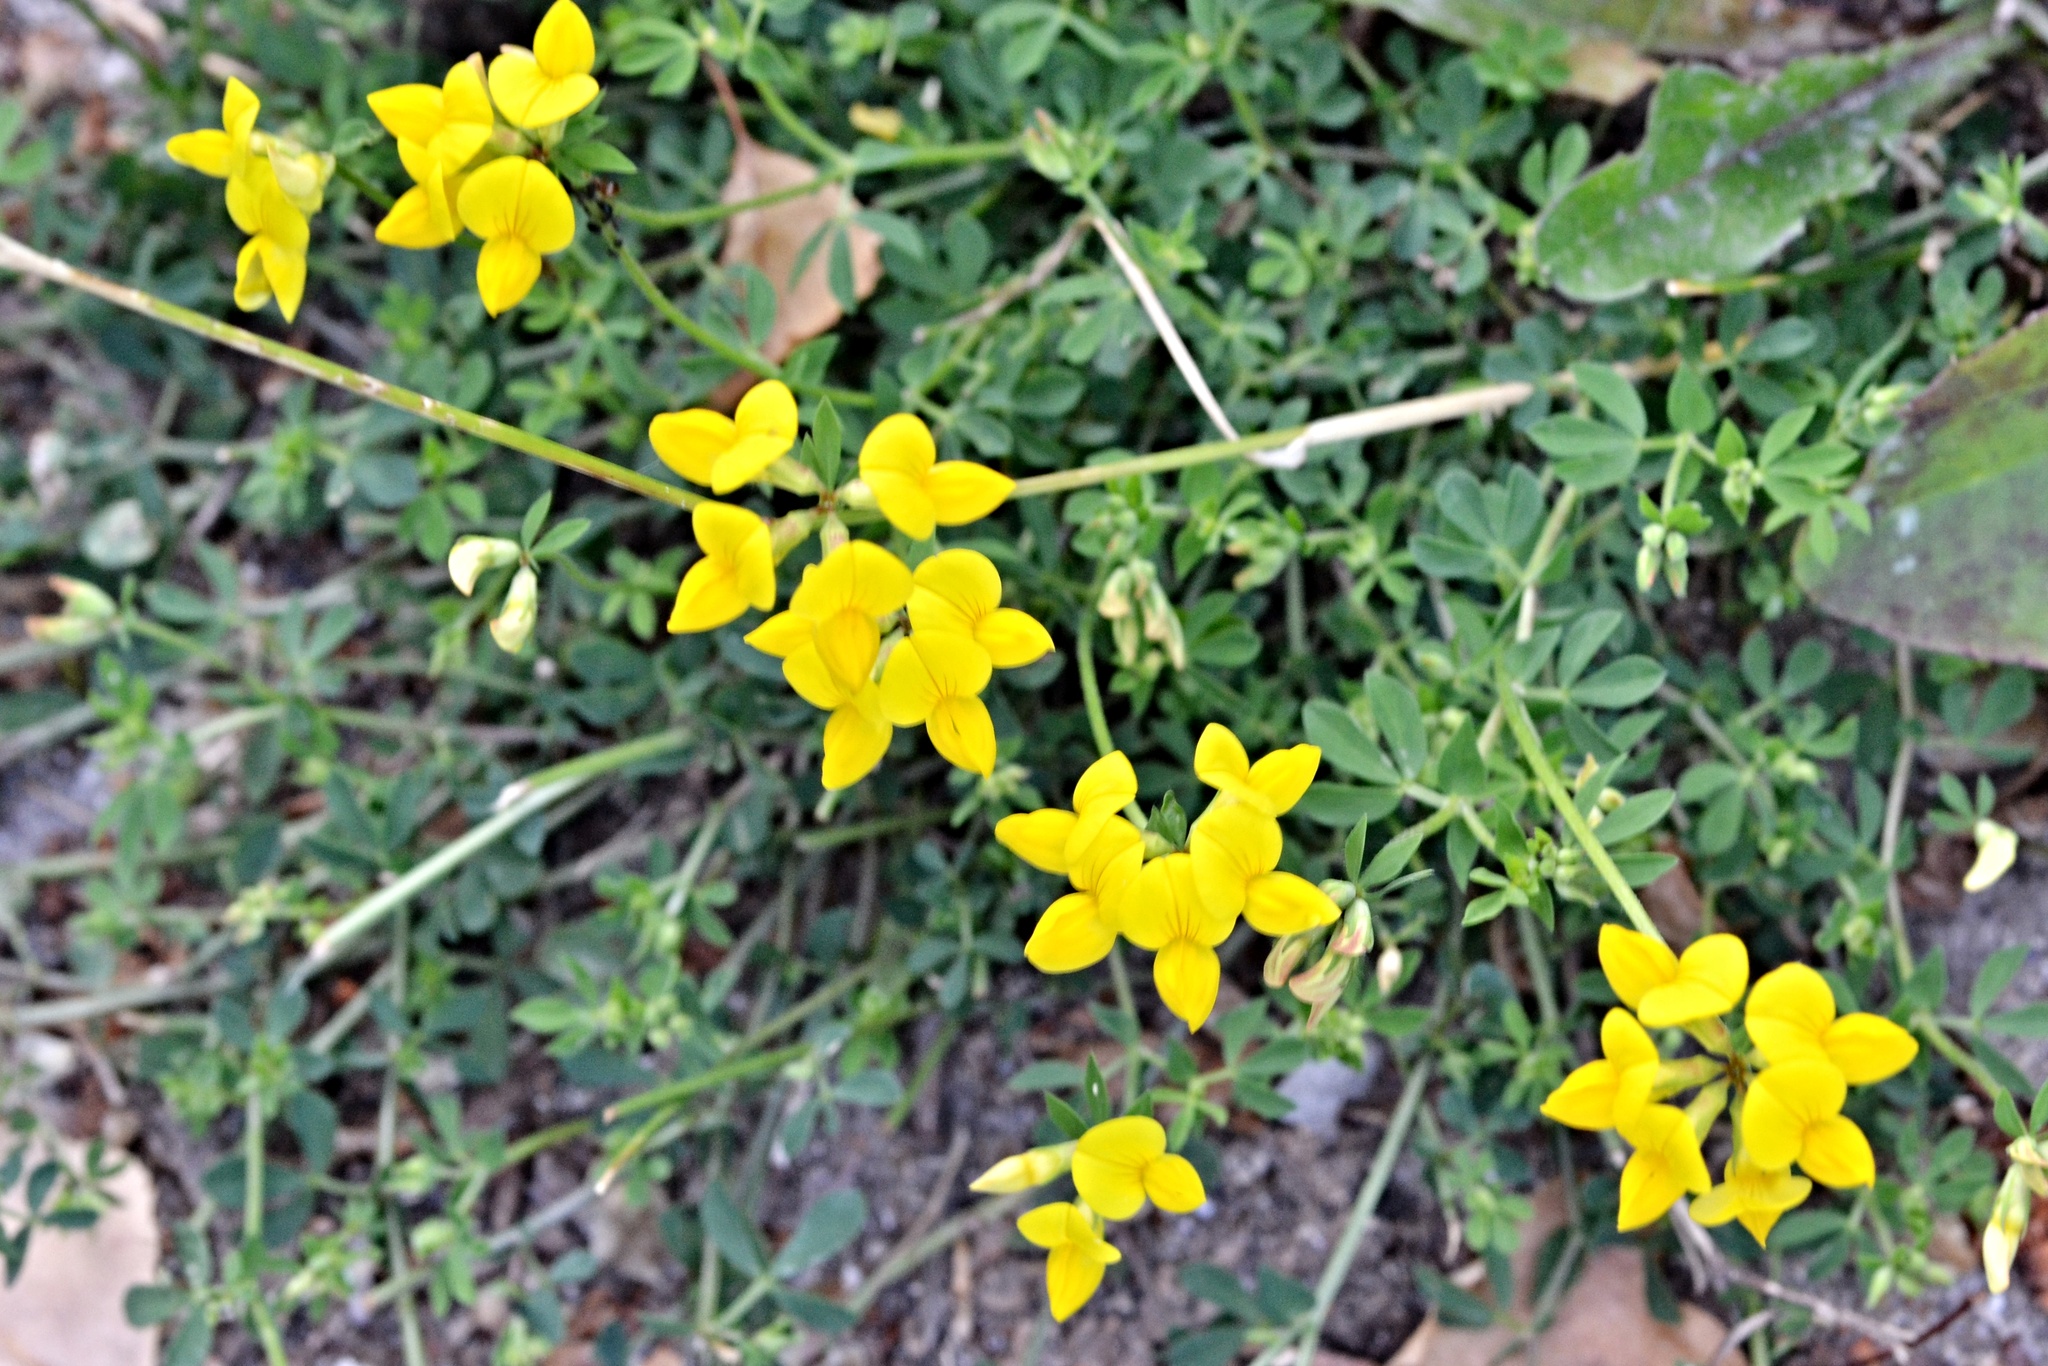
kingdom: Plantae
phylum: Tracheophyta
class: Magnoliopsida
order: Fabales
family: Fabaceae
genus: Lotus
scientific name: Lotus corniculatus
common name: Common bird's-foot-trefoil
